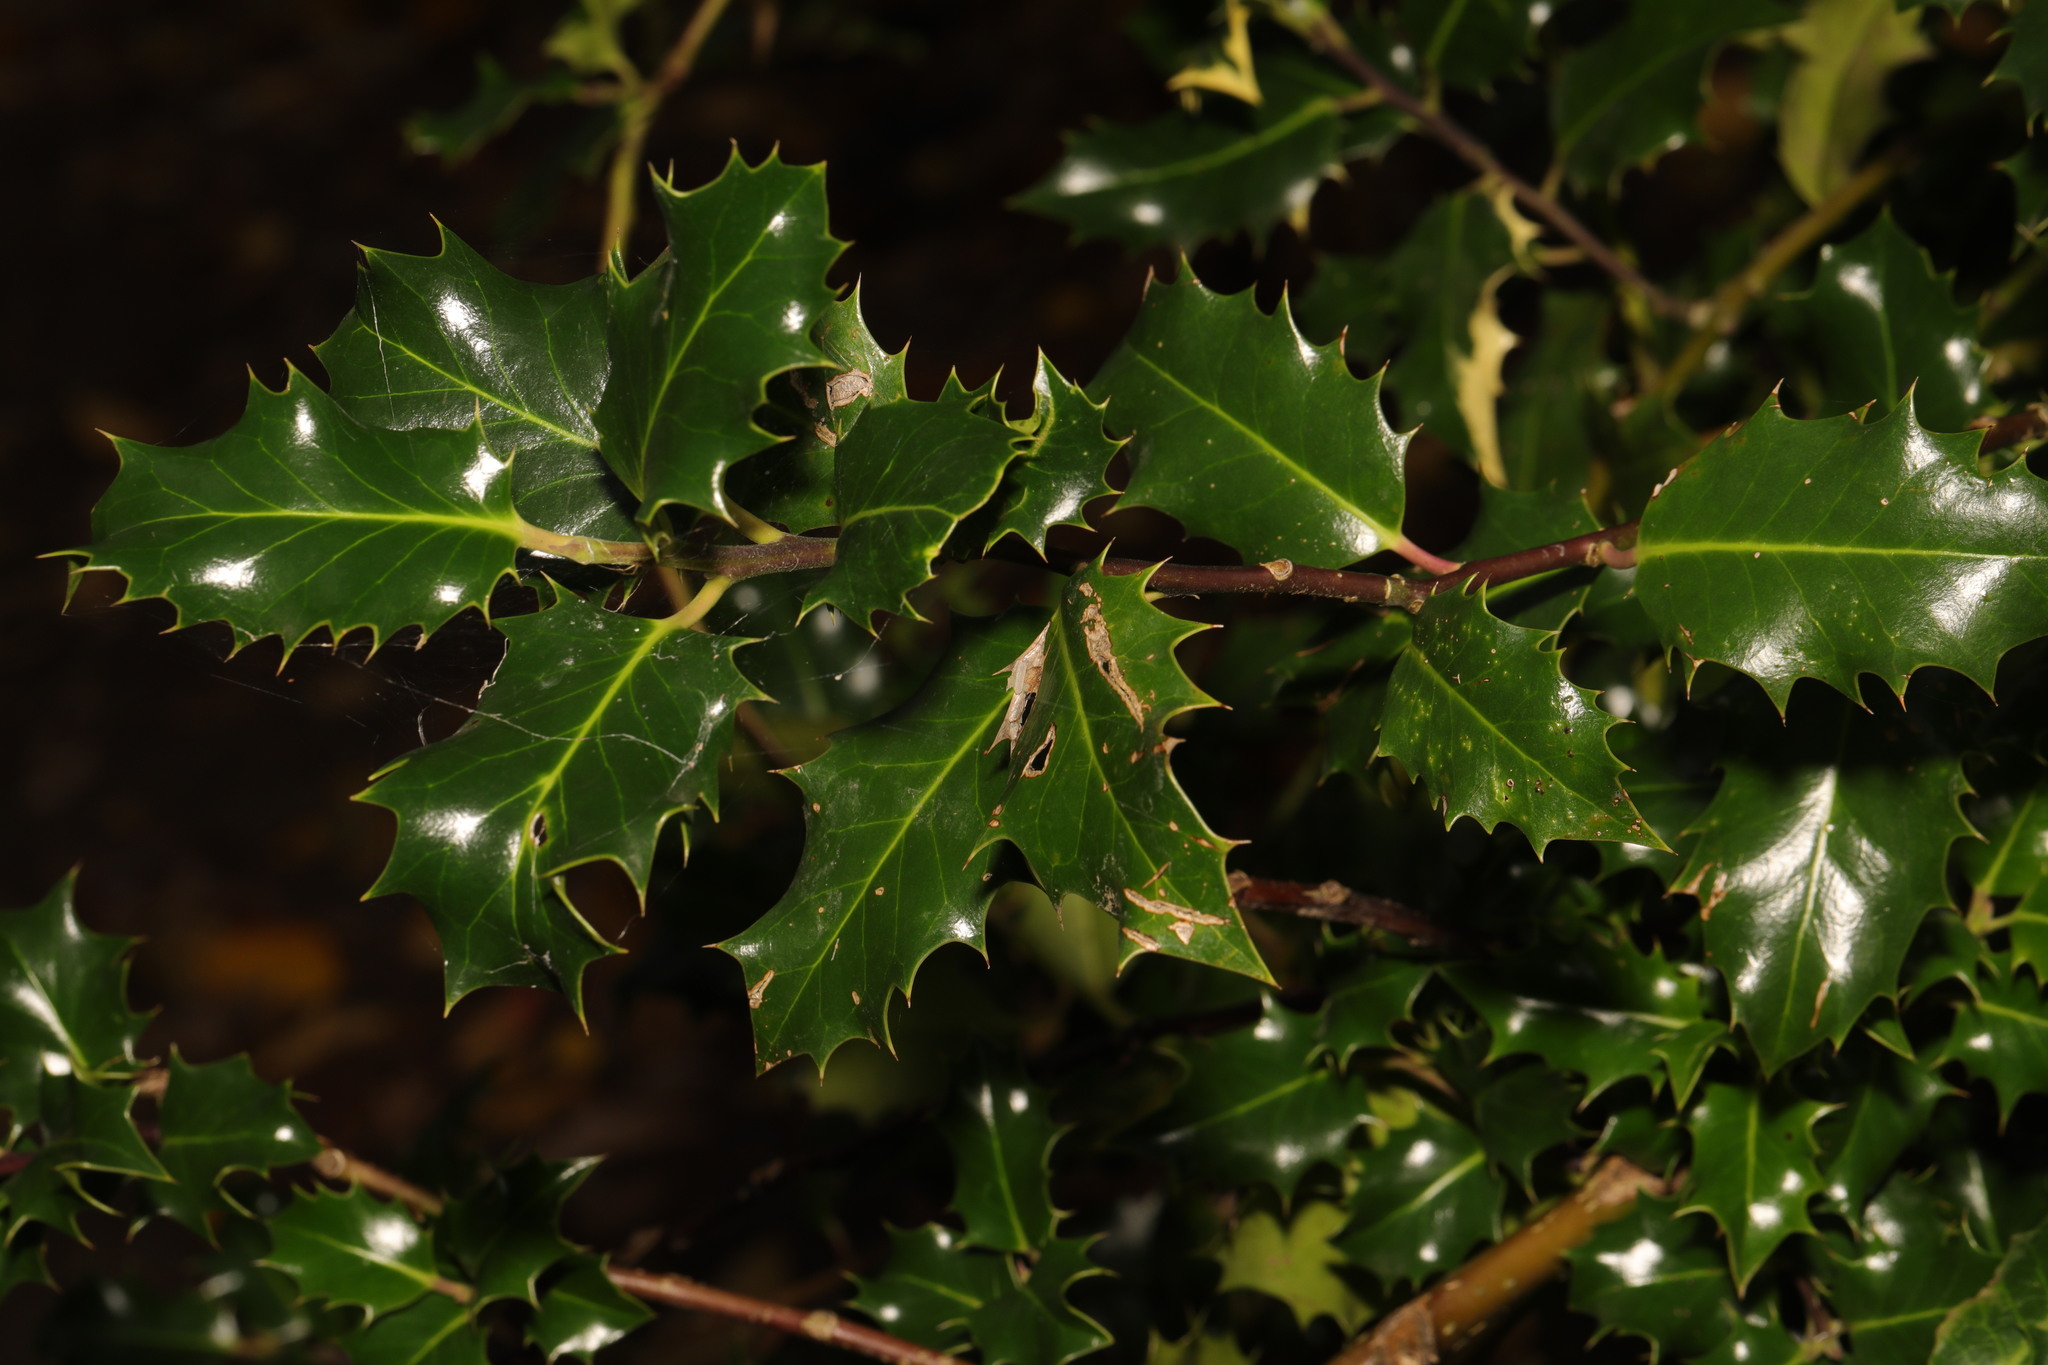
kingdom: Plantae
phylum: Tracheophyta
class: Magnoliopsida
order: Aquifoliales
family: Aquifoliaceae
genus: Ilex
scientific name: Ilex aquifolium
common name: English holly
